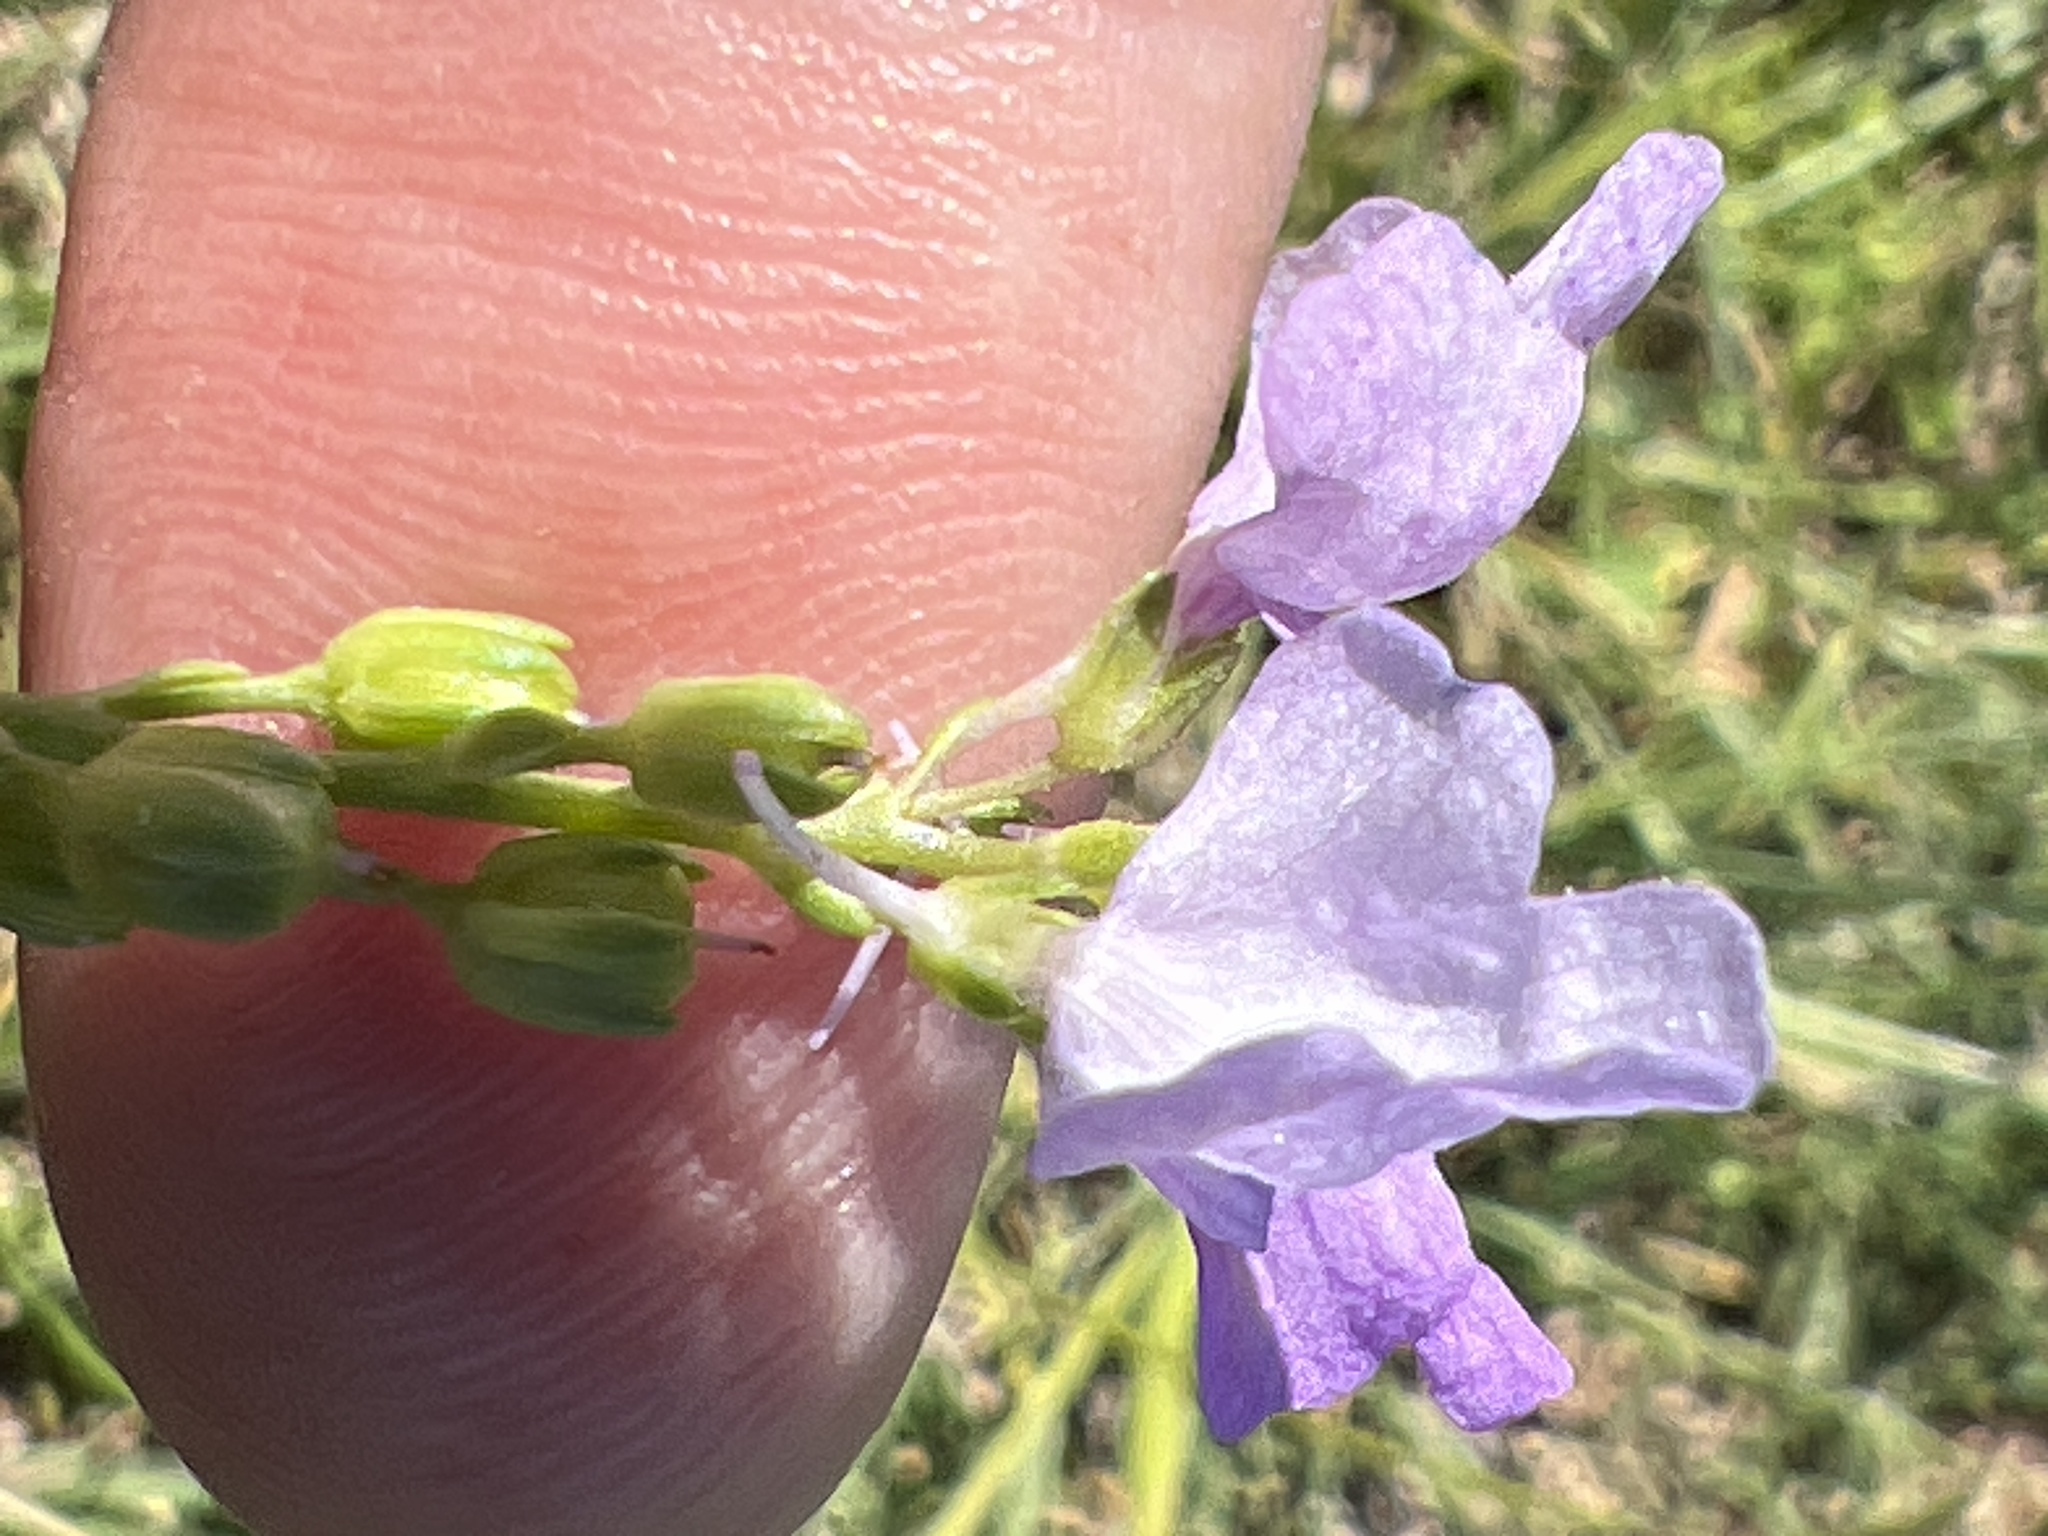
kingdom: Plantae
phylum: Tracheophyta
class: Magnoliopsida
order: Lamiales
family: Plantaginaceae
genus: Nuttallanthus
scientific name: Nuttallanthus texanus
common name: Texas toadflax
